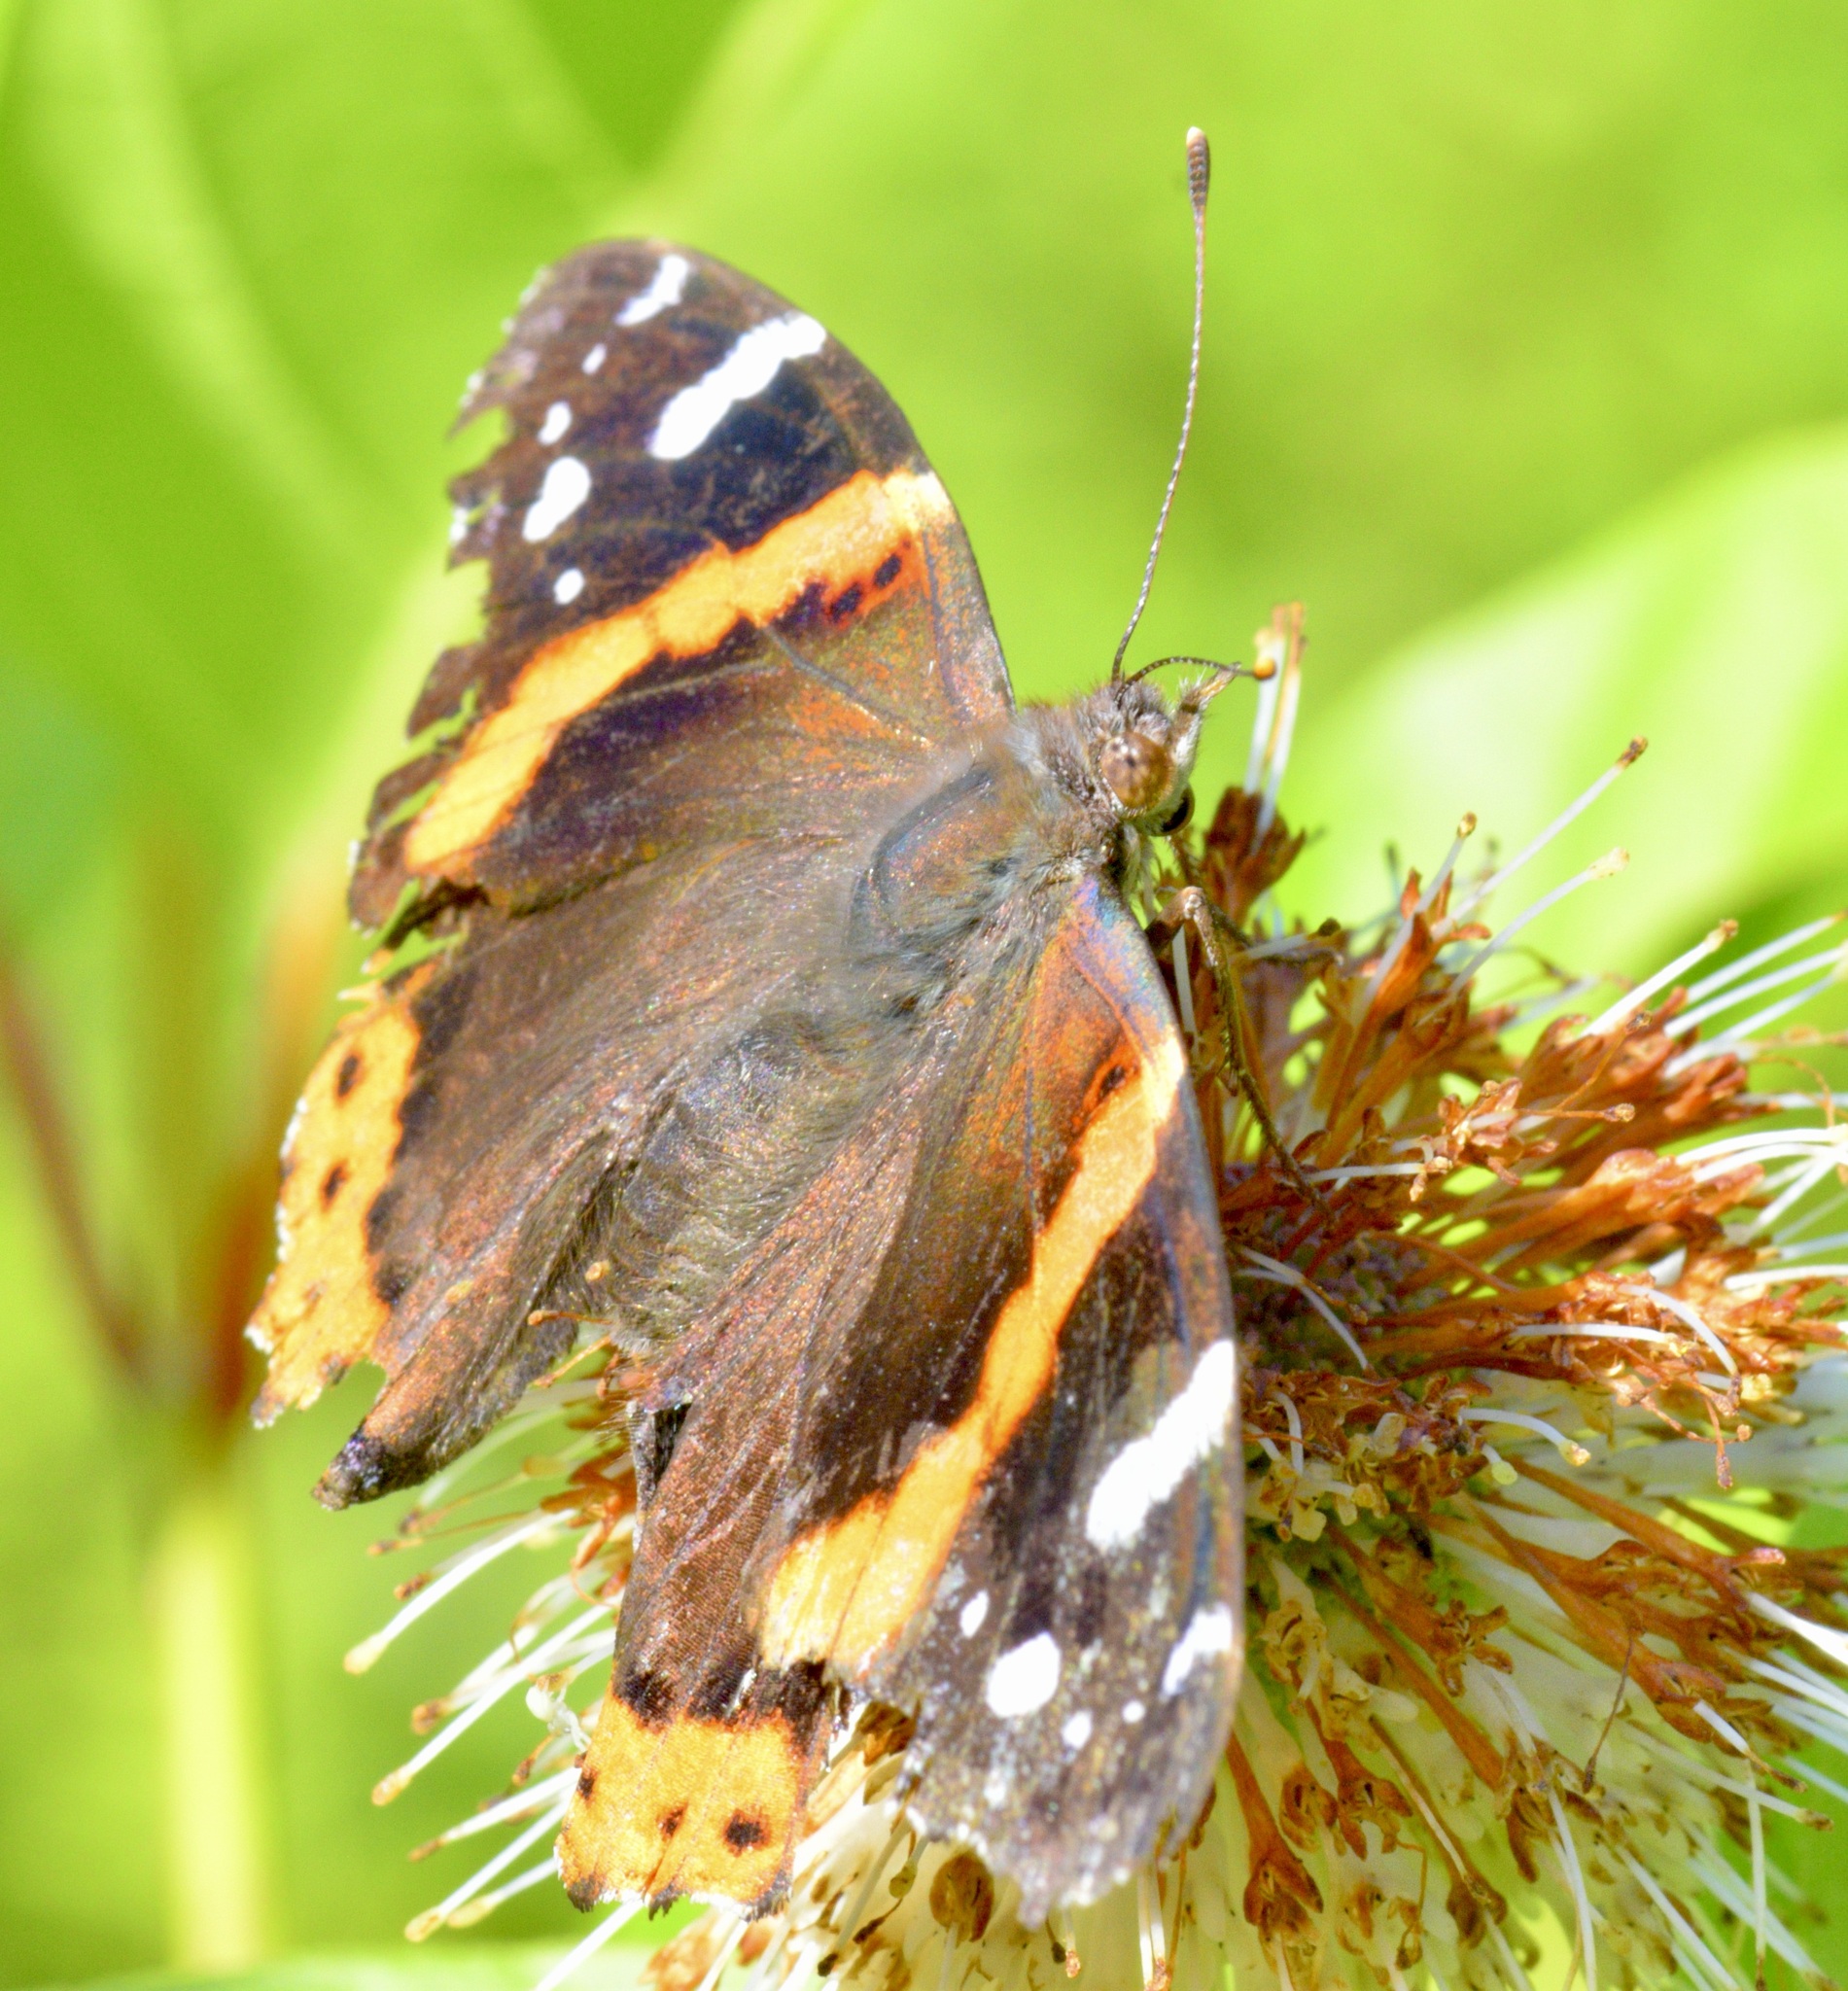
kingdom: Animalia
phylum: Arthropoda
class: Insecta
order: Lepidoptera
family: Nymphalidae
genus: Vanessa
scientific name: Vanessa atalanta
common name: Red admiral
